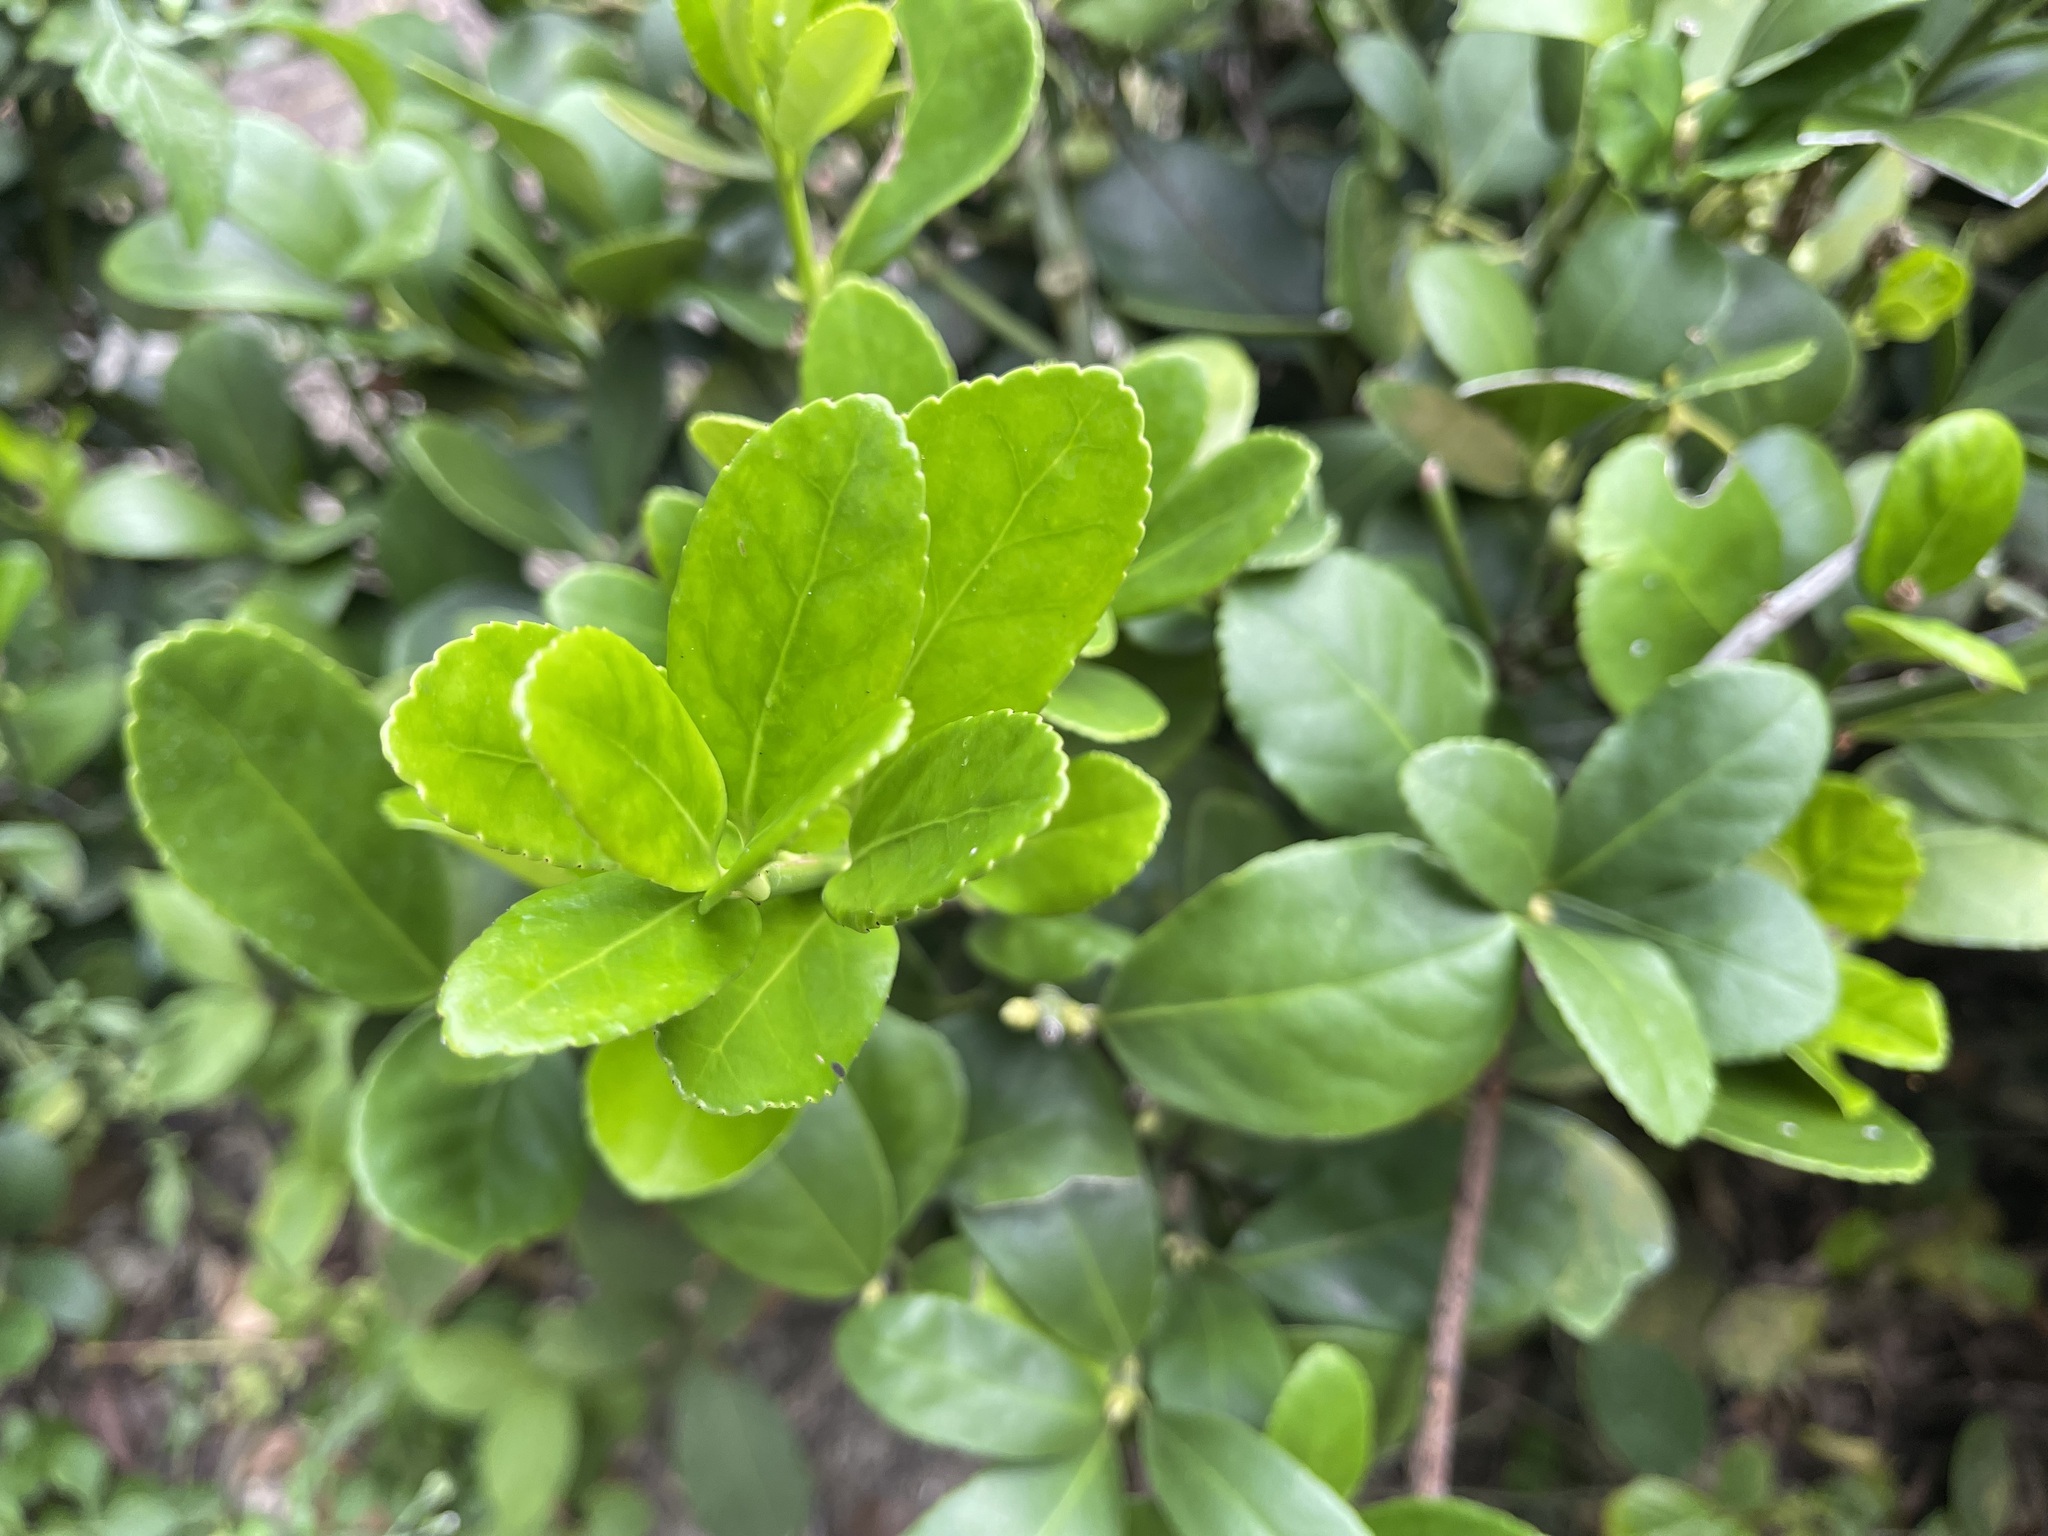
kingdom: Plantae
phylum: Tracheophyta
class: Magnoliopsida
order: Celastrales
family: Celastraceae
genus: Euonymus
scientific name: Euonymus japonicus
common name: Japanese spindletree
